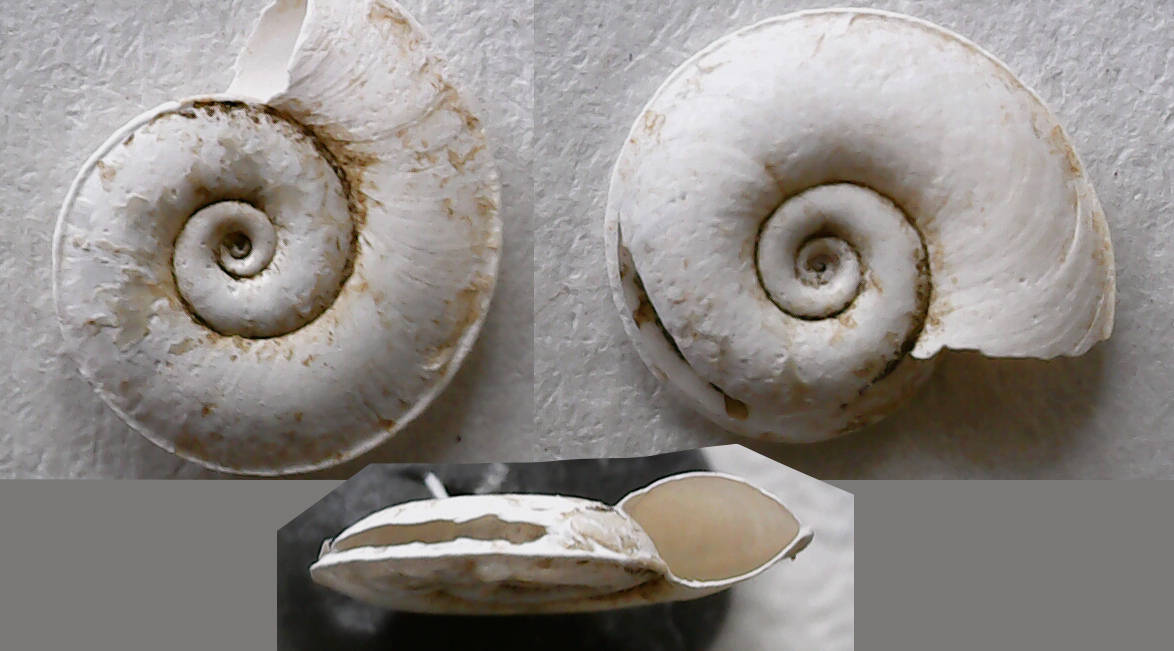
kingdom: Animalia
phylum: Mollusca
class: Gastropoda
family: Planorbidae
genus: Planorbis
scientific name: Planorbis carinatus
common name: Keeled ramshorn
